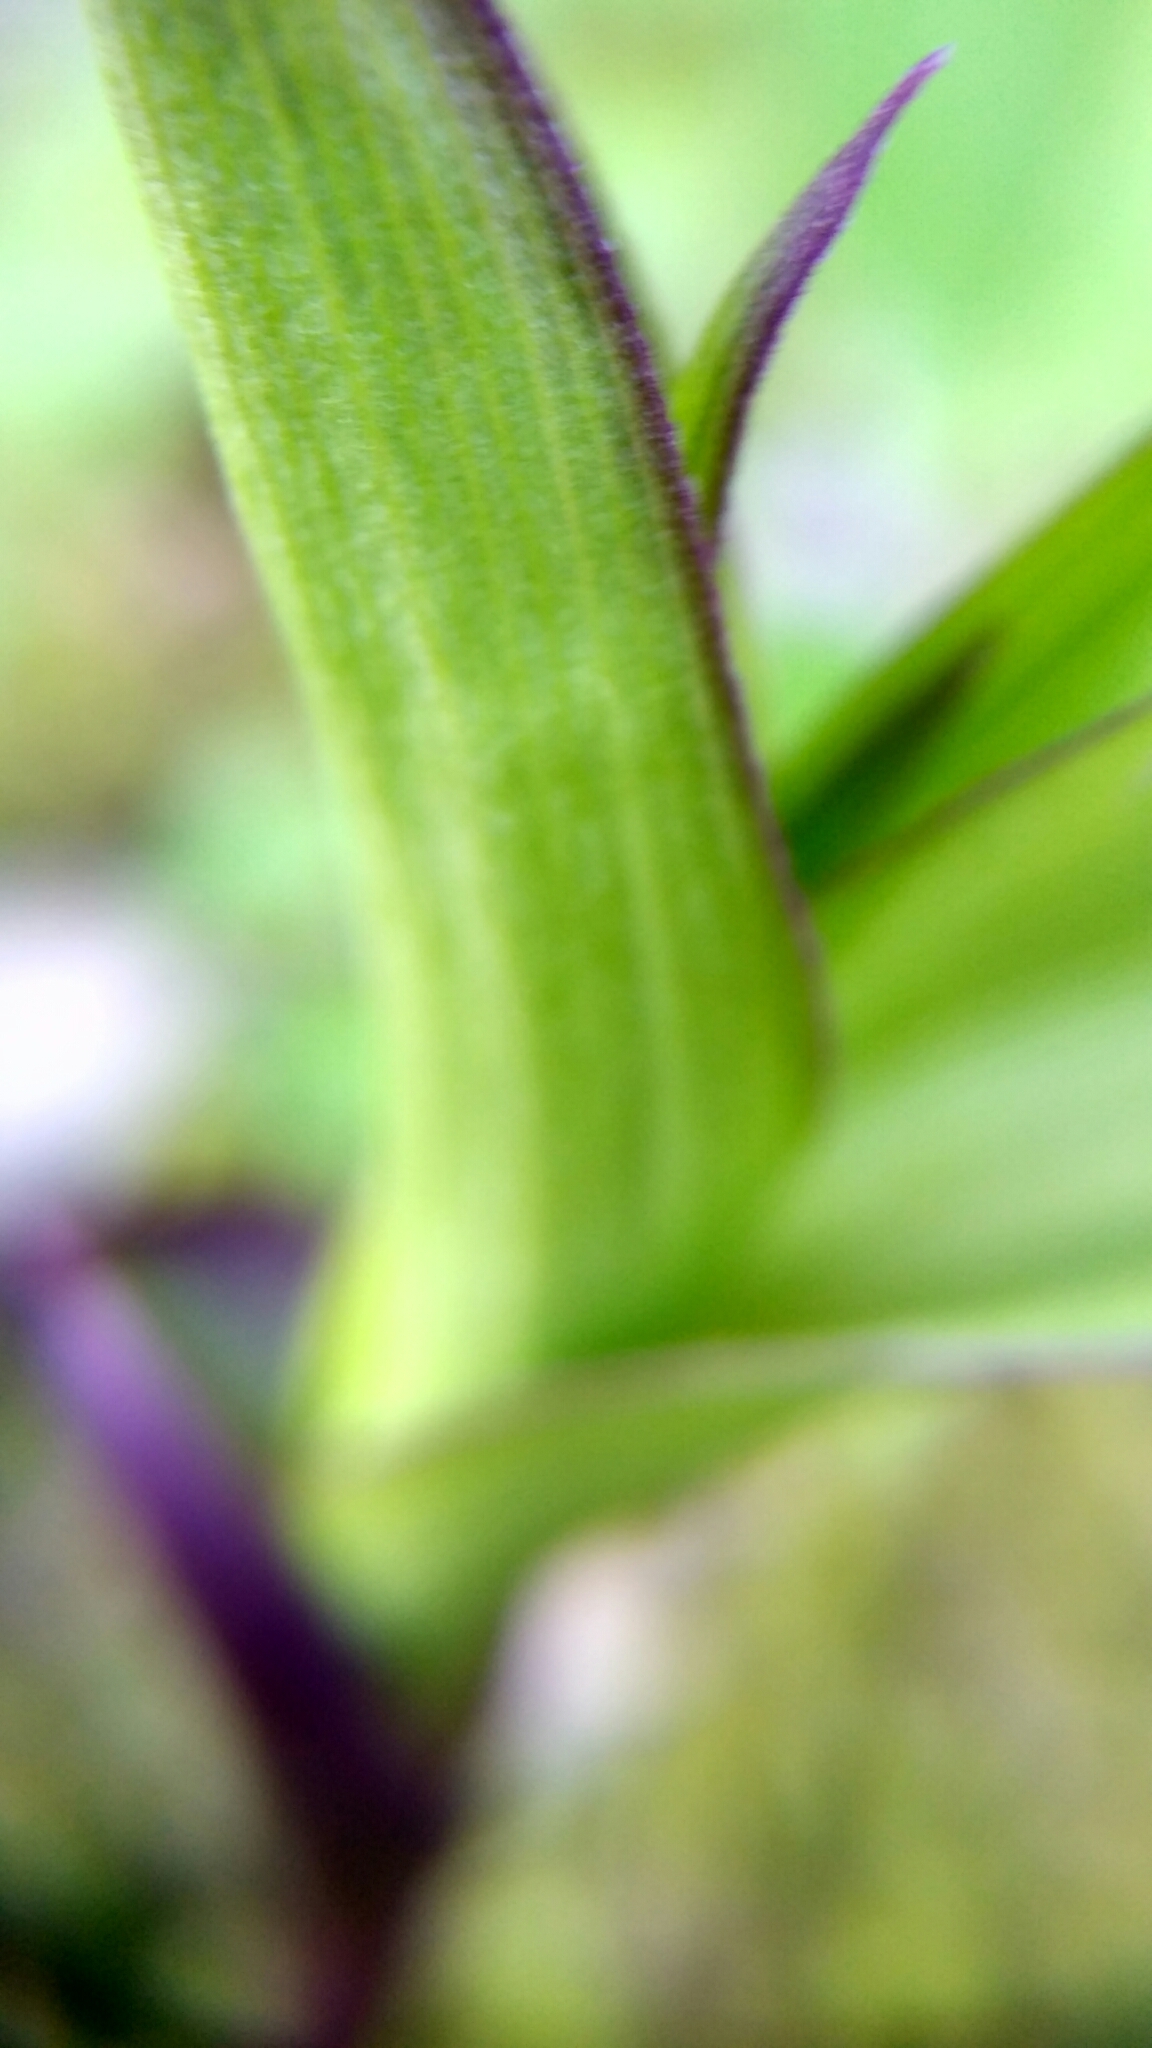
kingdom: Plantae
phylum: Tracheophyta
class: Liliopsida
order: Asparagales
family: Orchidaceae
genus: Epipactis
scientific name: Epipactis atrorubens
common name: Dark-red helleborine
